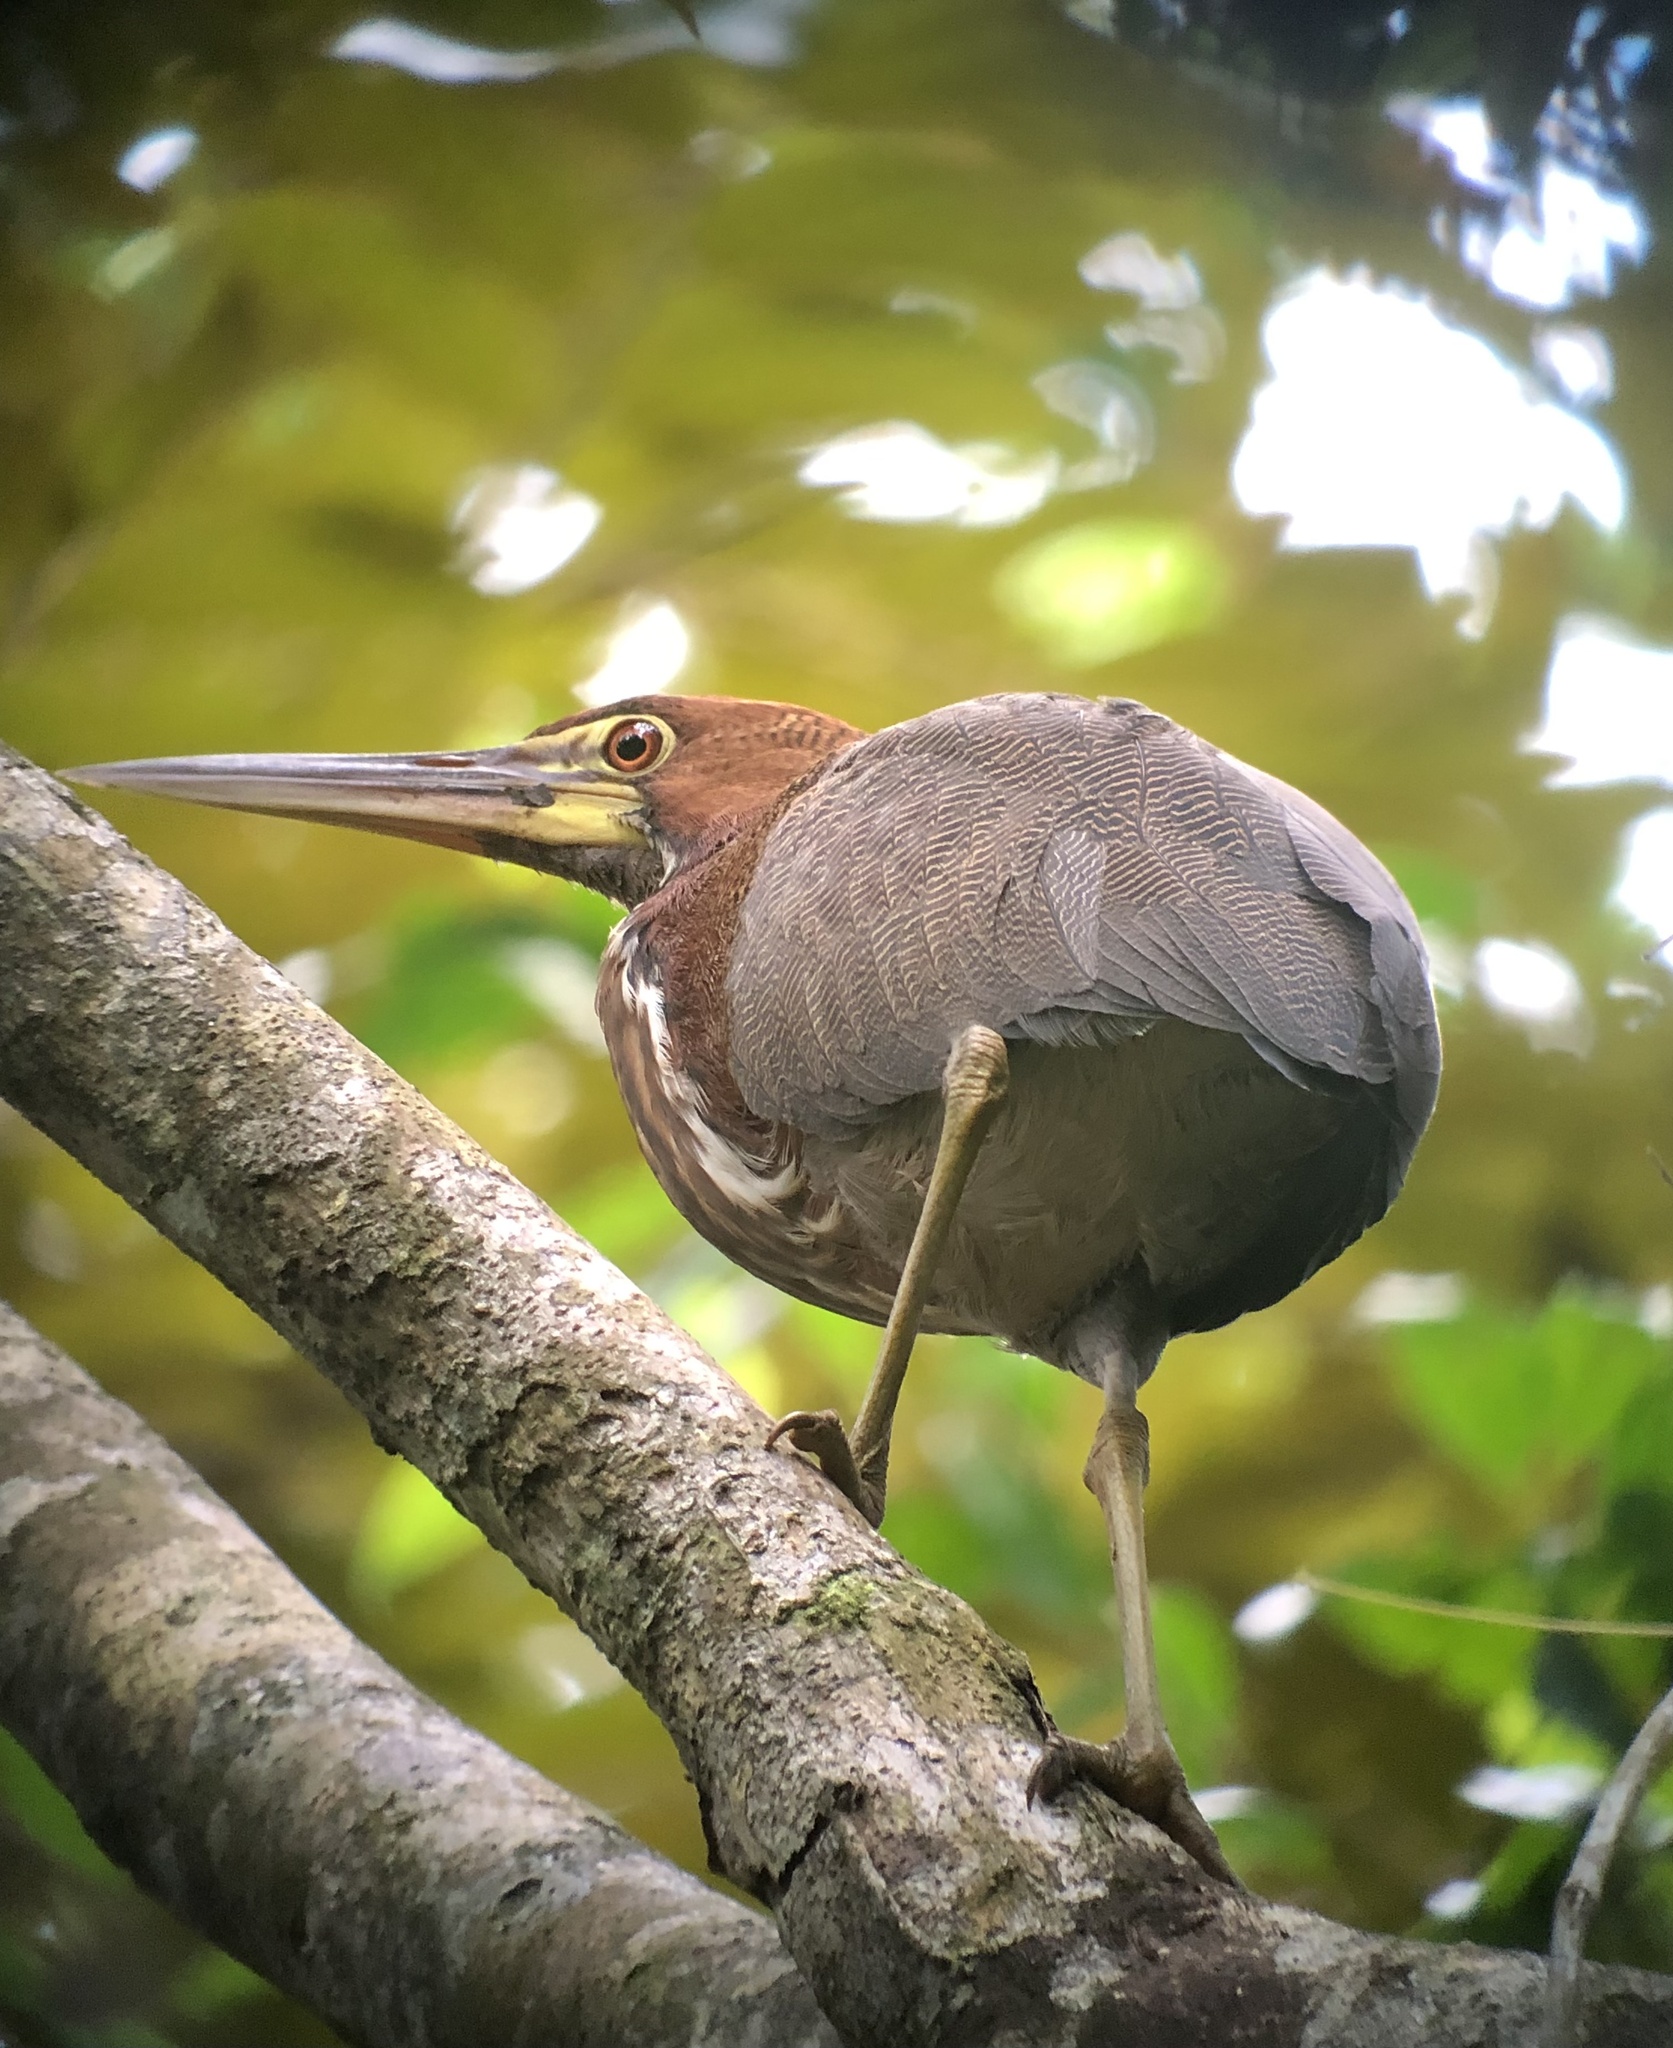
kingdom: Animalia
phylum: Chordata
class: Aves
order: Pelecaniformes
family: Ardeidae
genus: Tigrisoma
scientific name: Tigrisoma lineatum
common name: Rufescent tiger-heron
